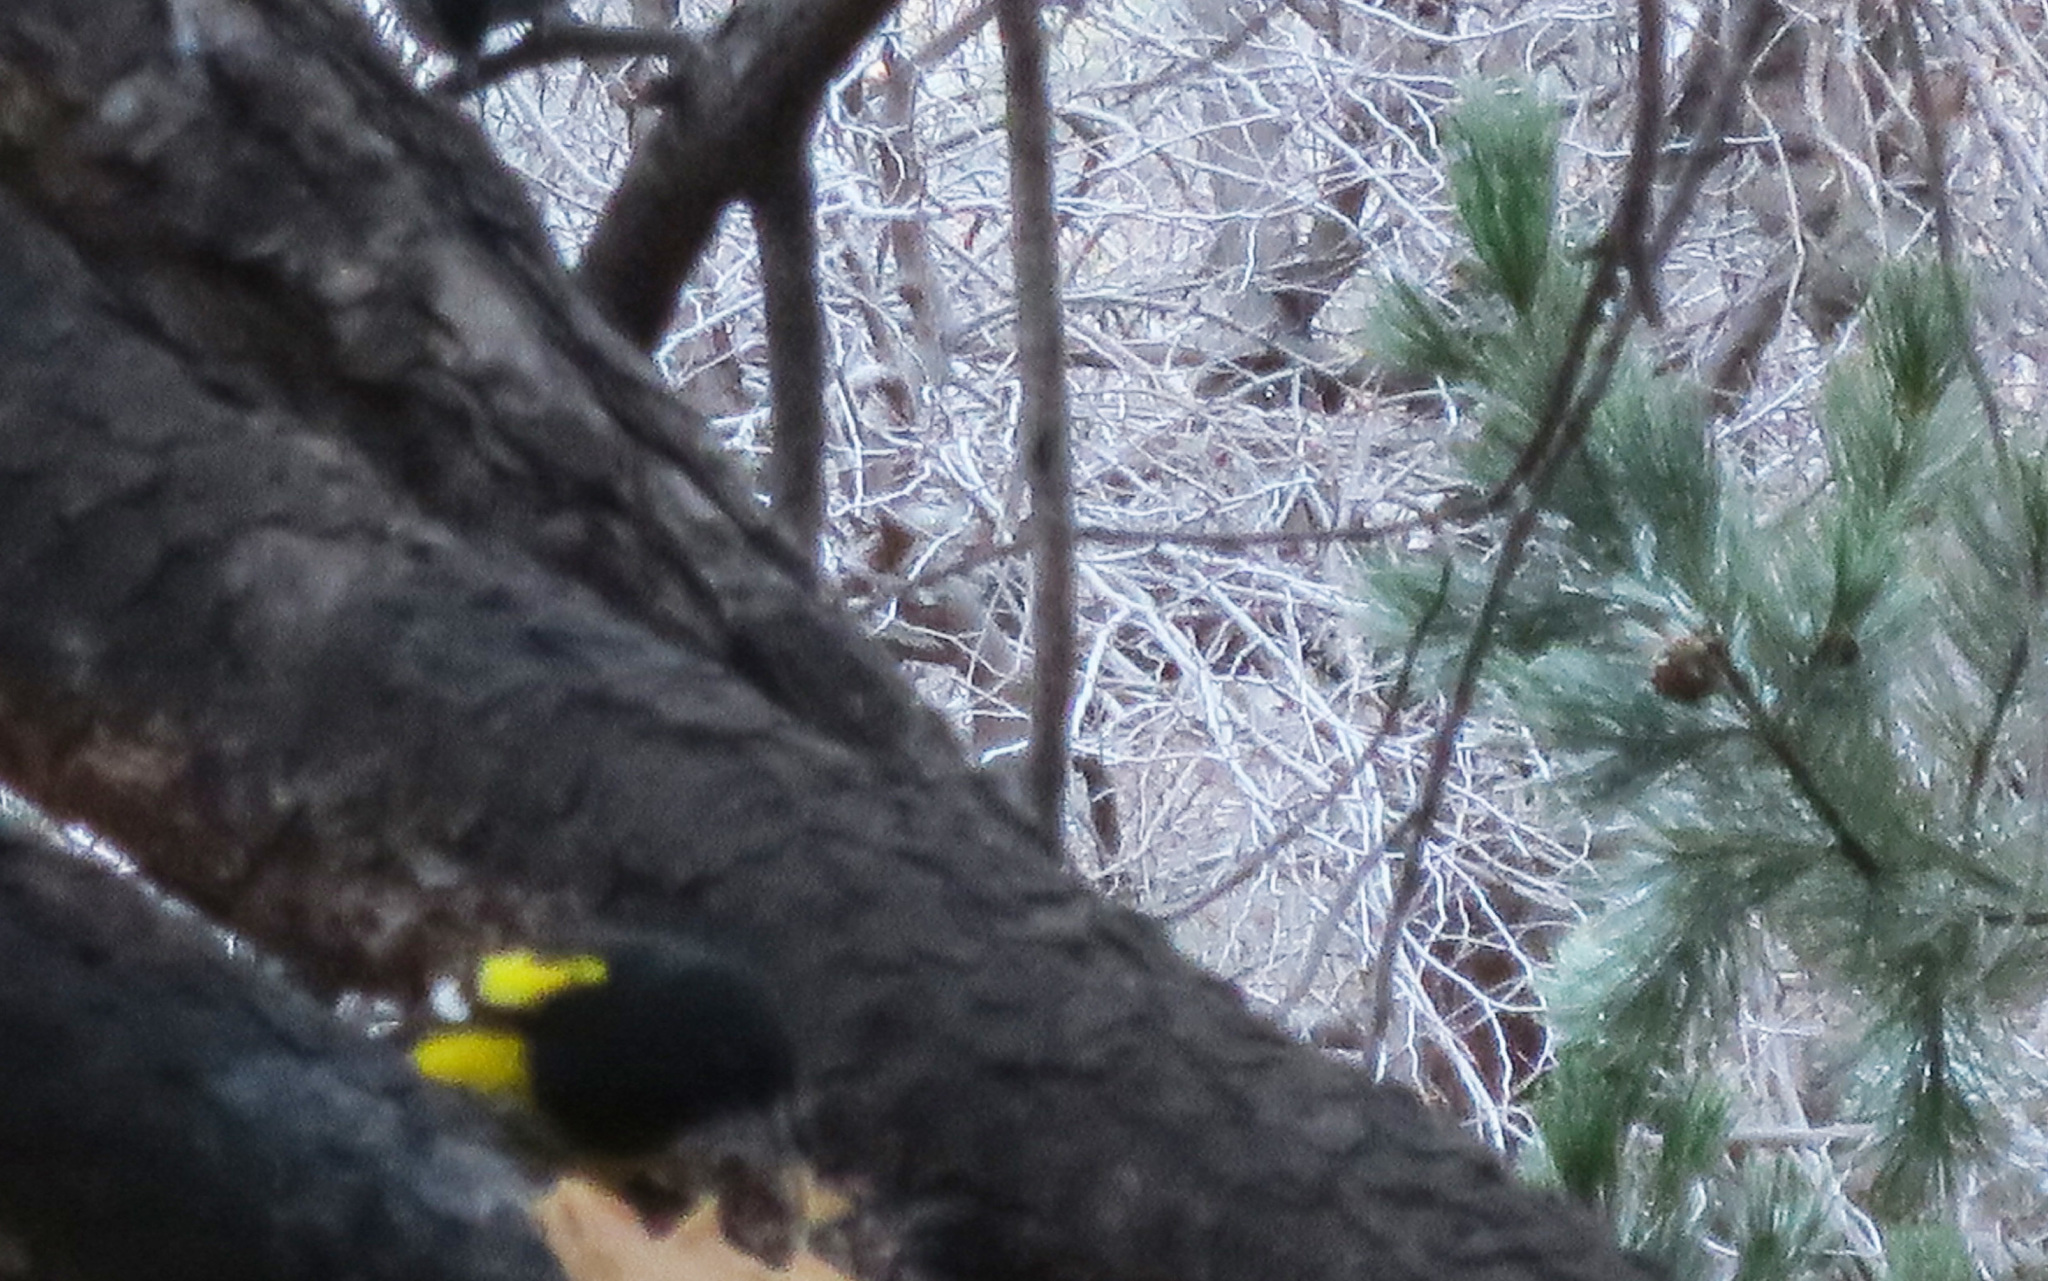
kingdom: Animalia
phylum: Chordata
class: Aves
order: Passeriformes
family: Icteridae
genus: Icterus
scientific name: Icterus parisorum
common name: Scott's oriole
